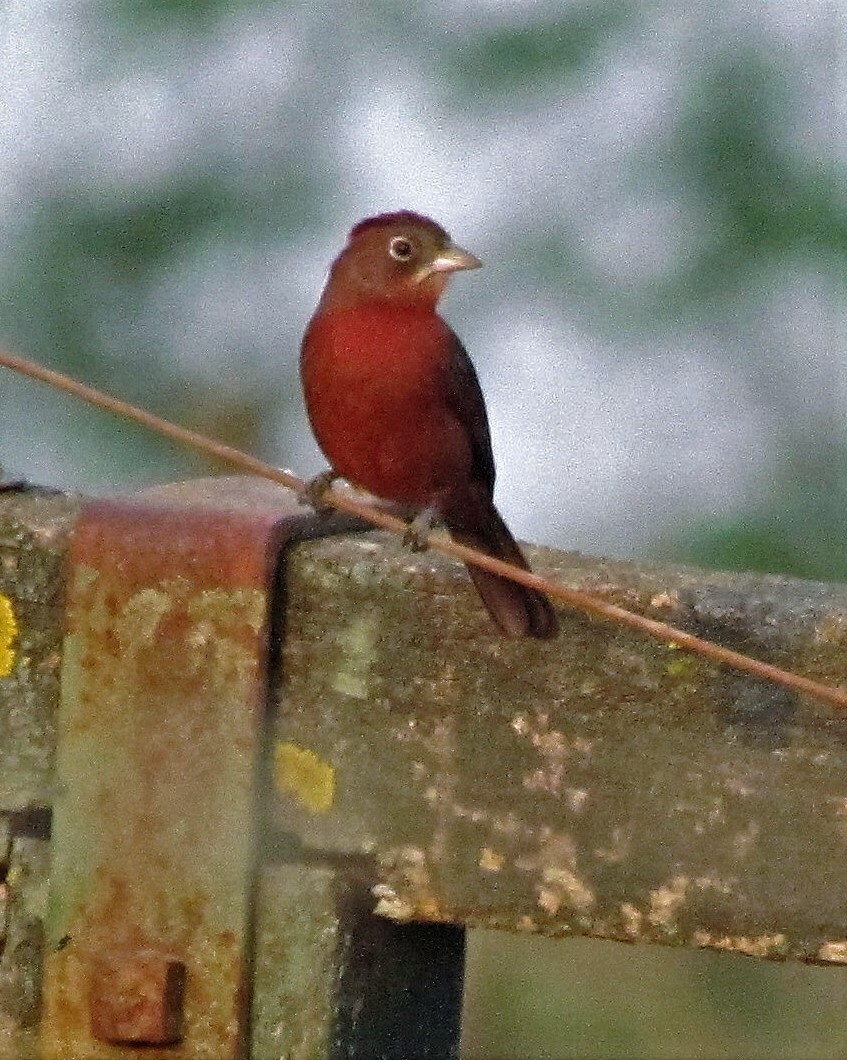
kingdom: Animalia
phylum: Chordata
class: Aves
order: Passeriformes
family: Thraupidae
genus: Coryphospingus
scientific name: Coryphospingus cucullatus
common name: Red pileated finch
